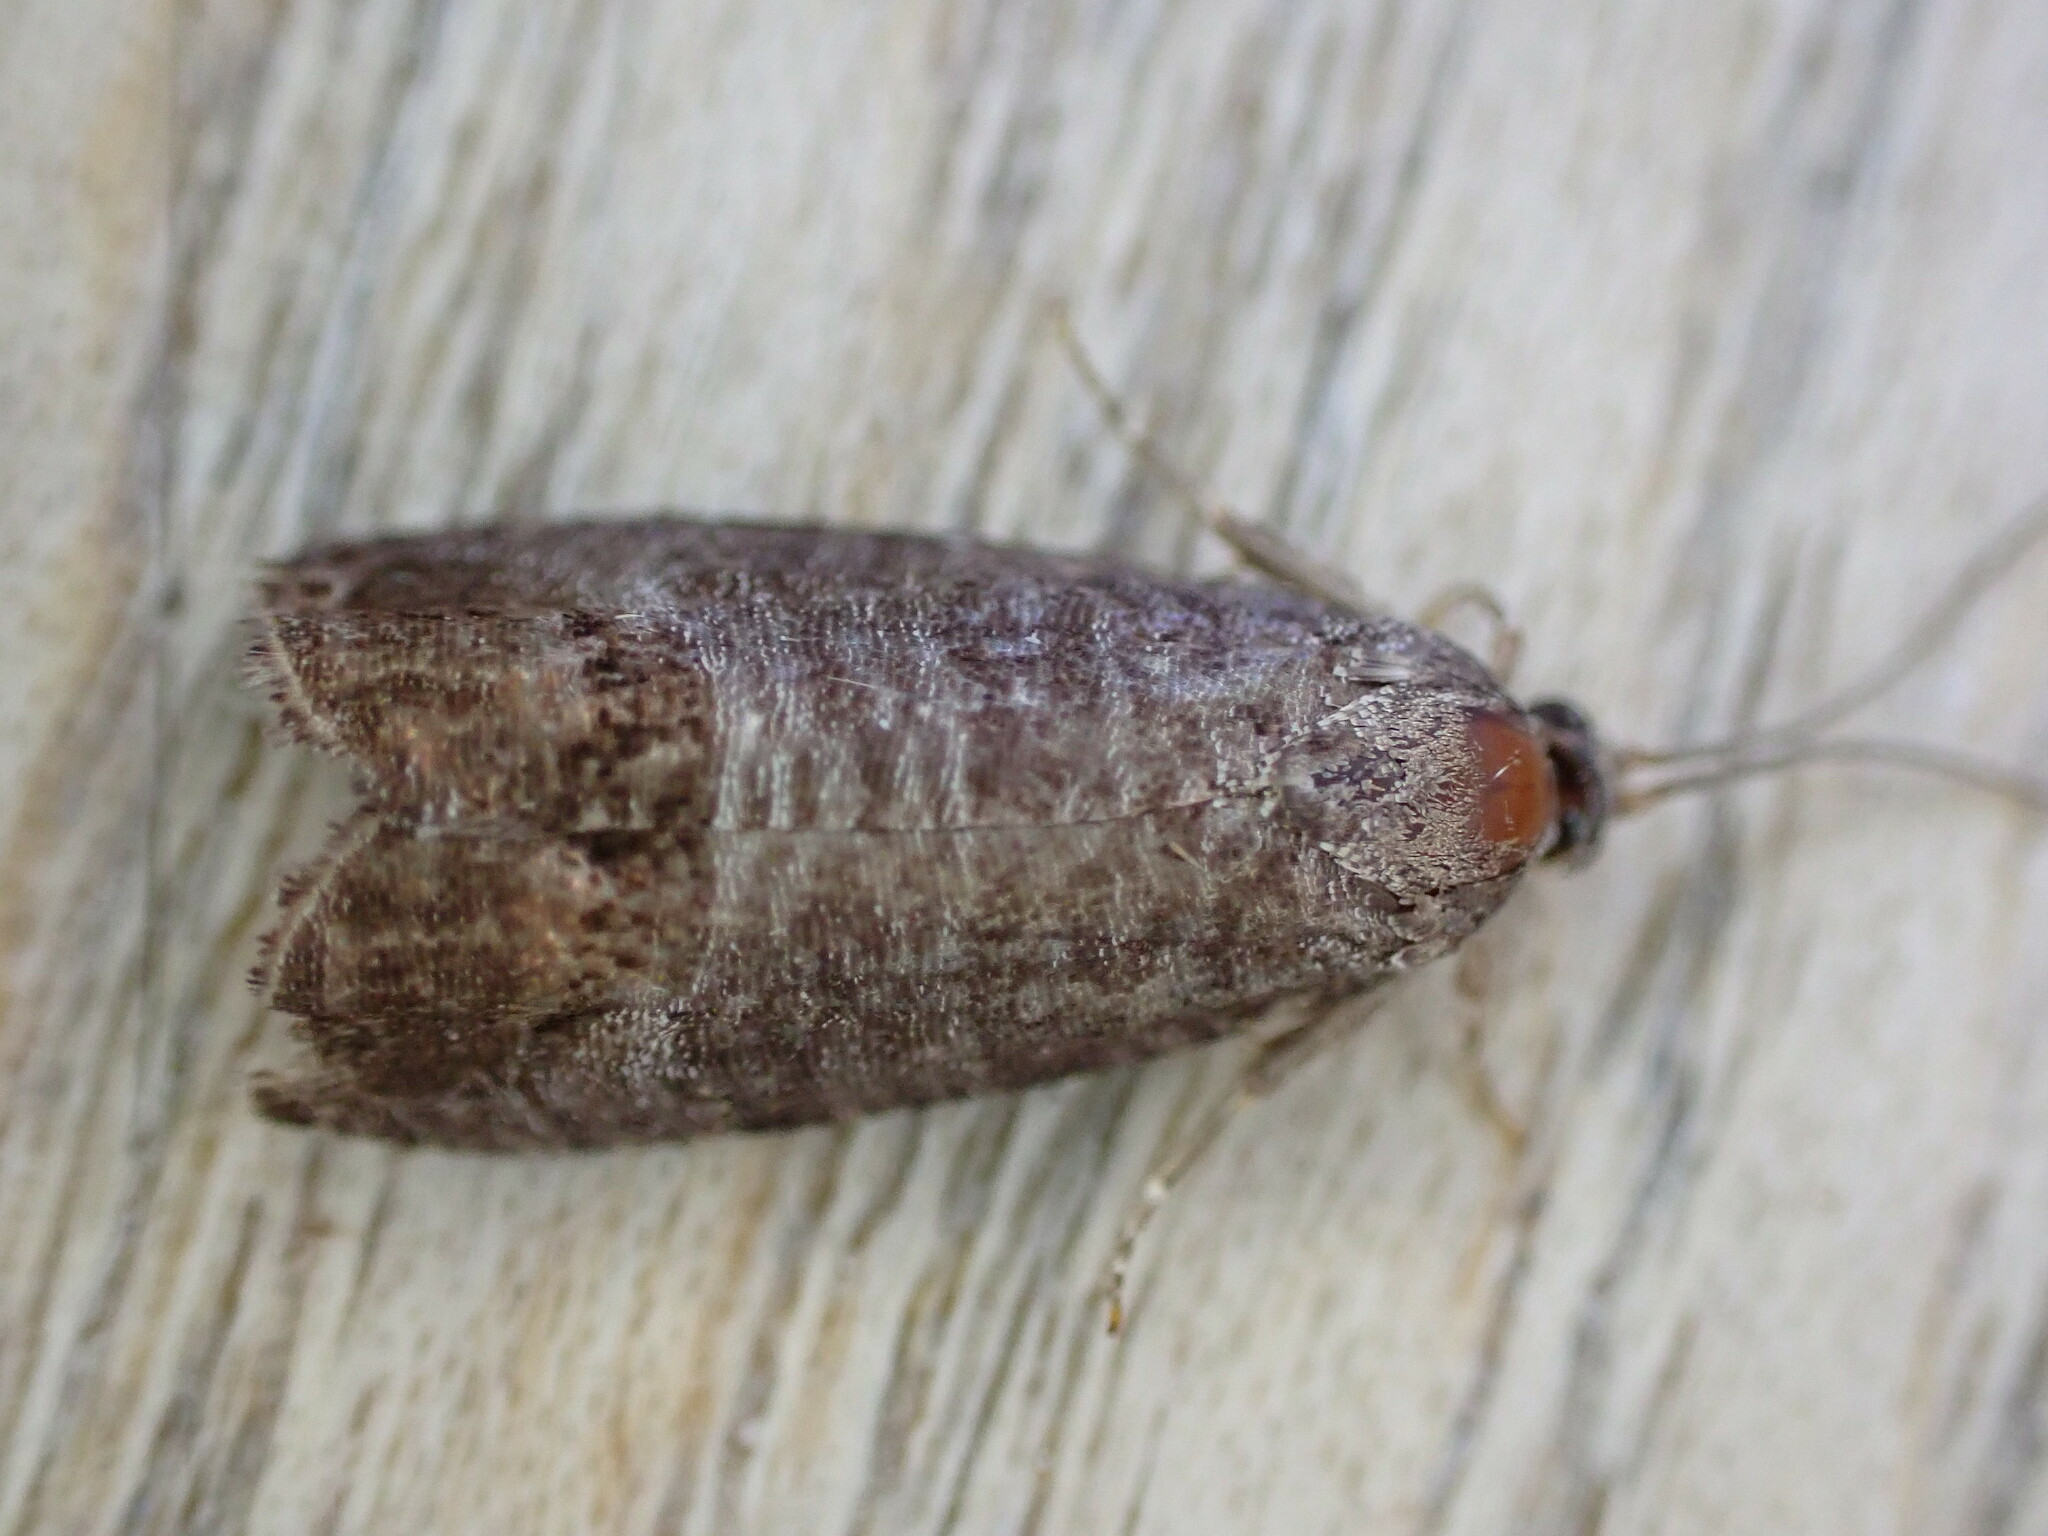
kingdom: Animalia
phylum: Arthropoda
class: Insecta
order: Lepidoptera
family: Tortricidae
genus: Cydia
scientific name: Cydia pomonella
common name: Codling moth
